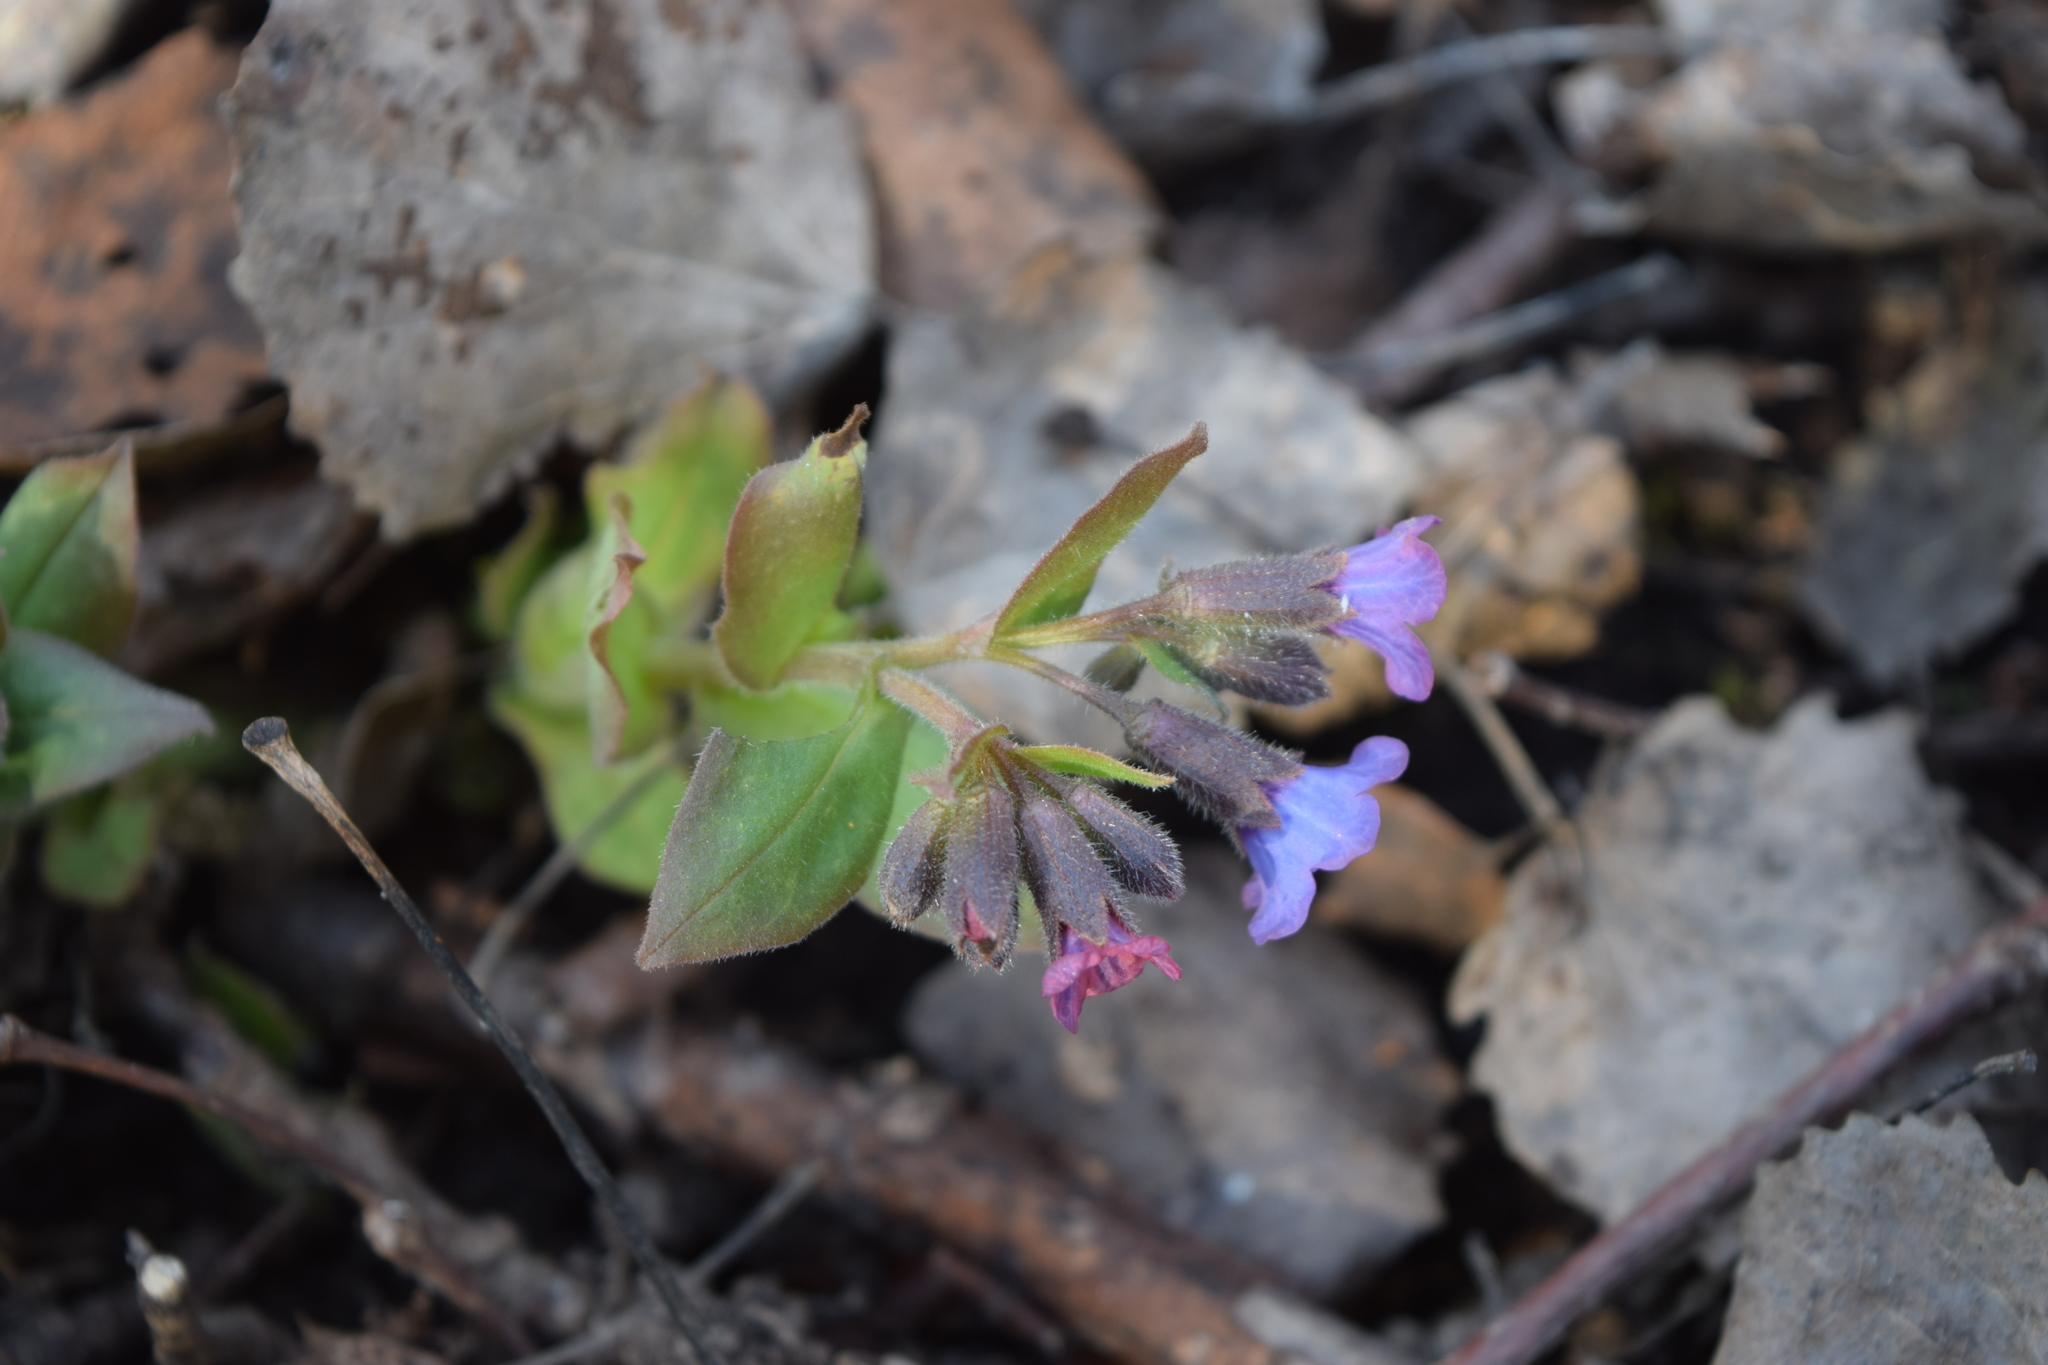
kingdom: Plantae
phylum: Tracheophyta
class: Magnoliopsida
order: Boraginales
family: Boraginaceae
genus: Pulmonaria
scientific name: Pulmonaria obscura
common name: Suffolk lungwort
